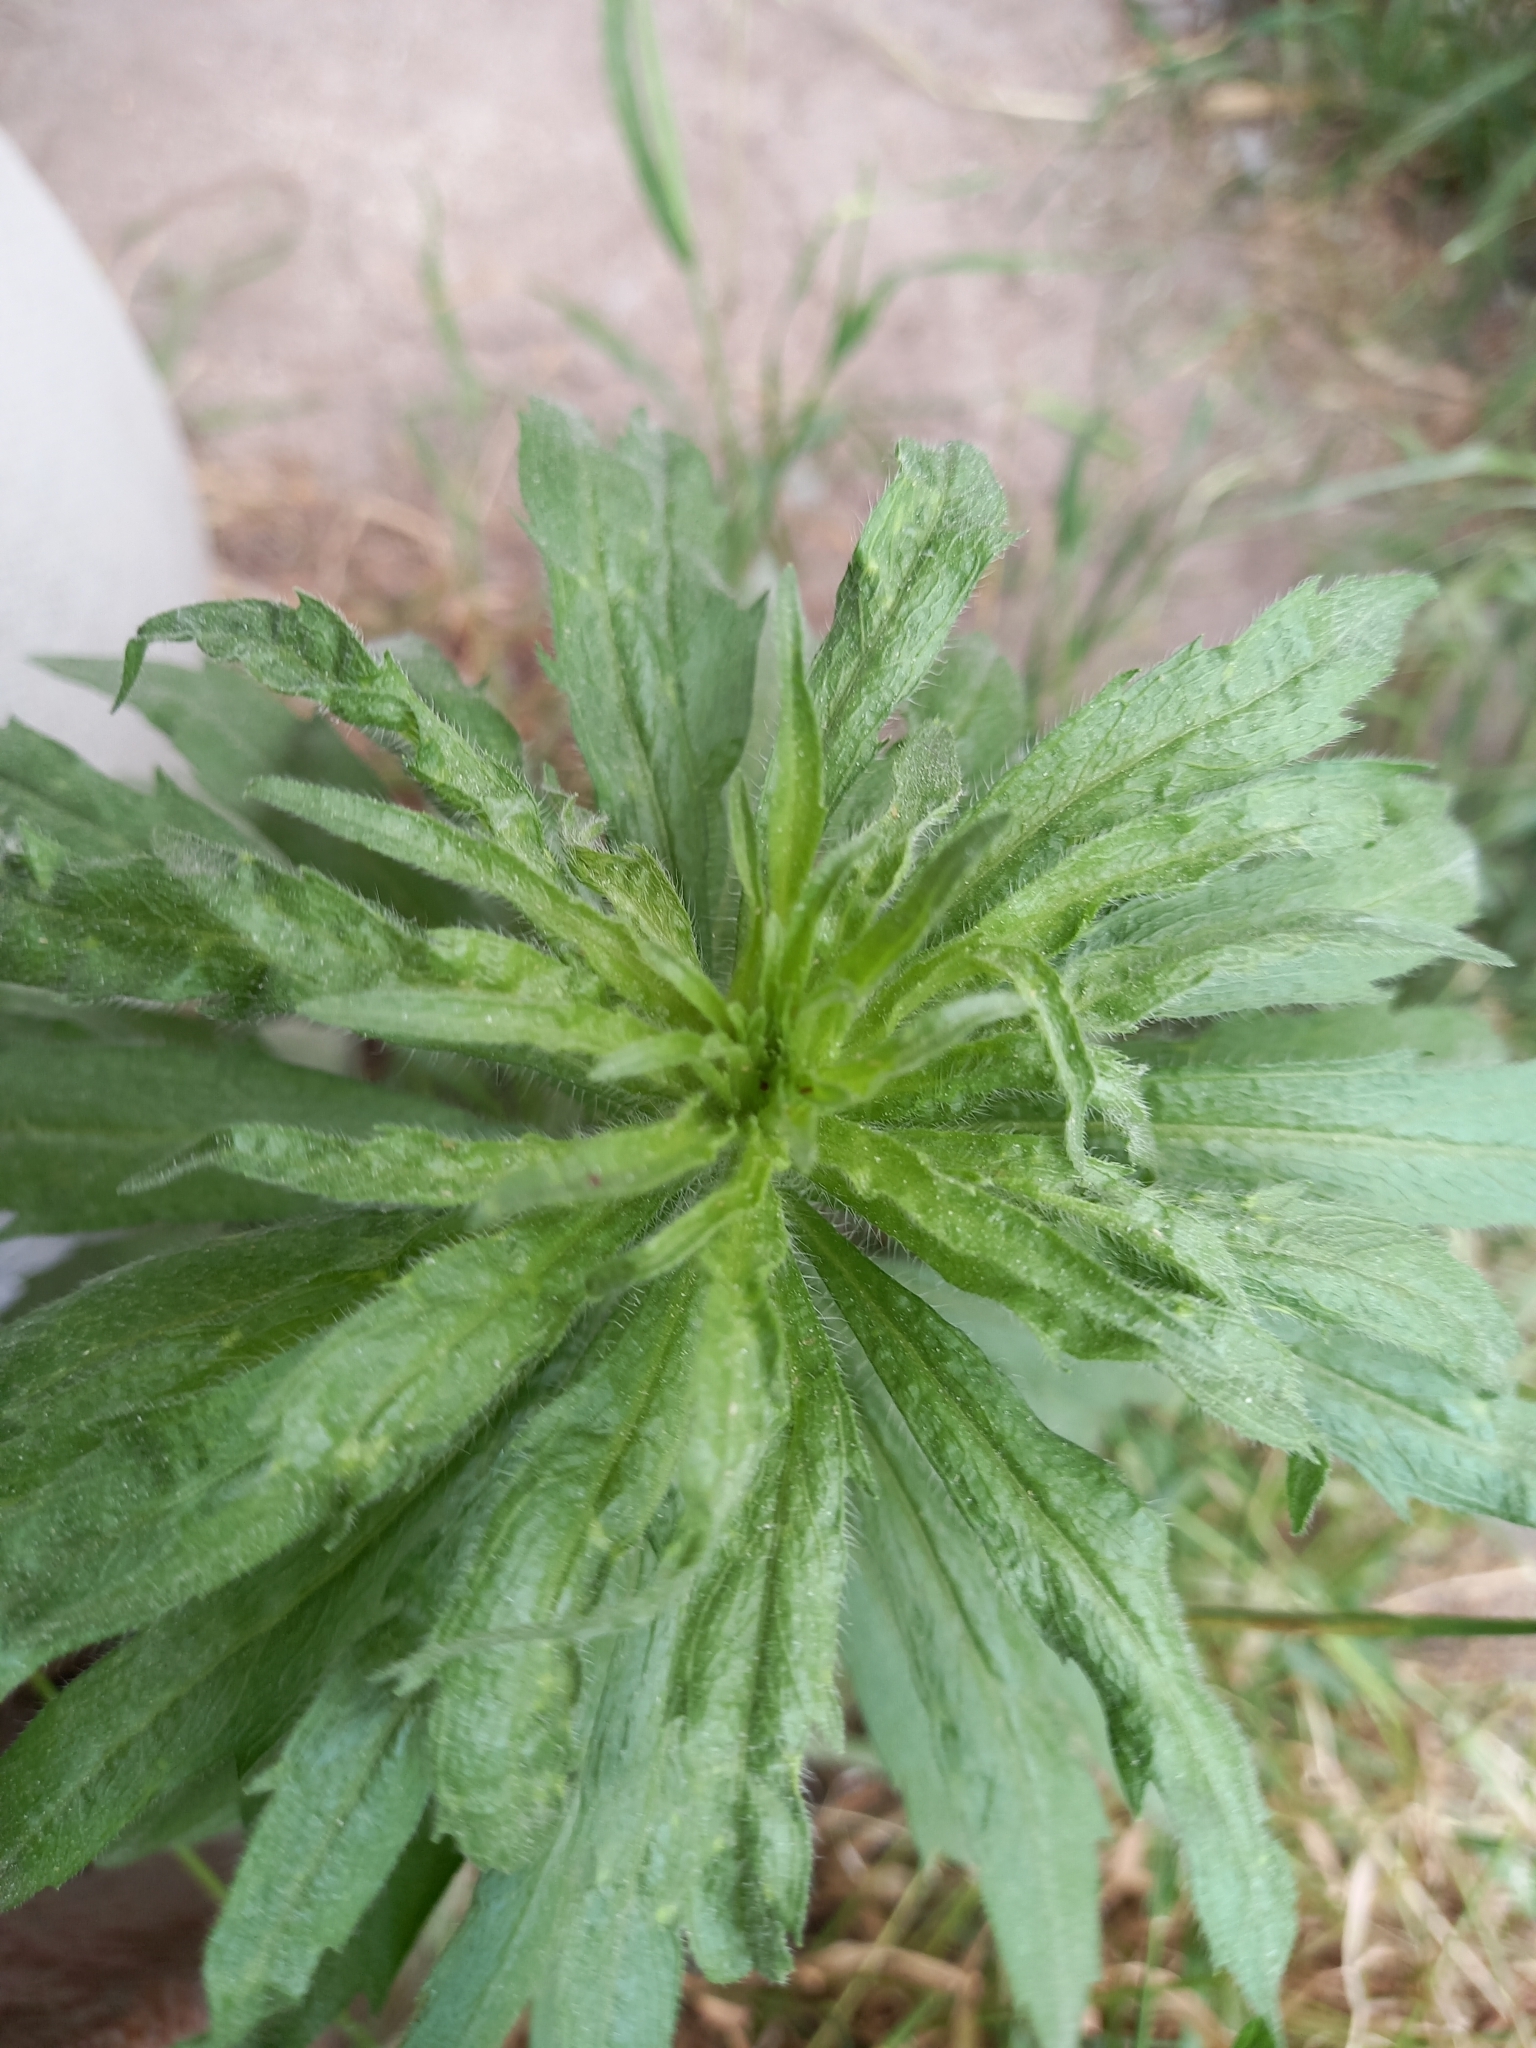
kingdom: Plantae
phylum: Tracheophyta
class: Magnoliopsida
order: Asterales
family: Asteraceae
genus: Erigeron
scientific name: Erigeron canadensis
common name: Canadian fleabane
